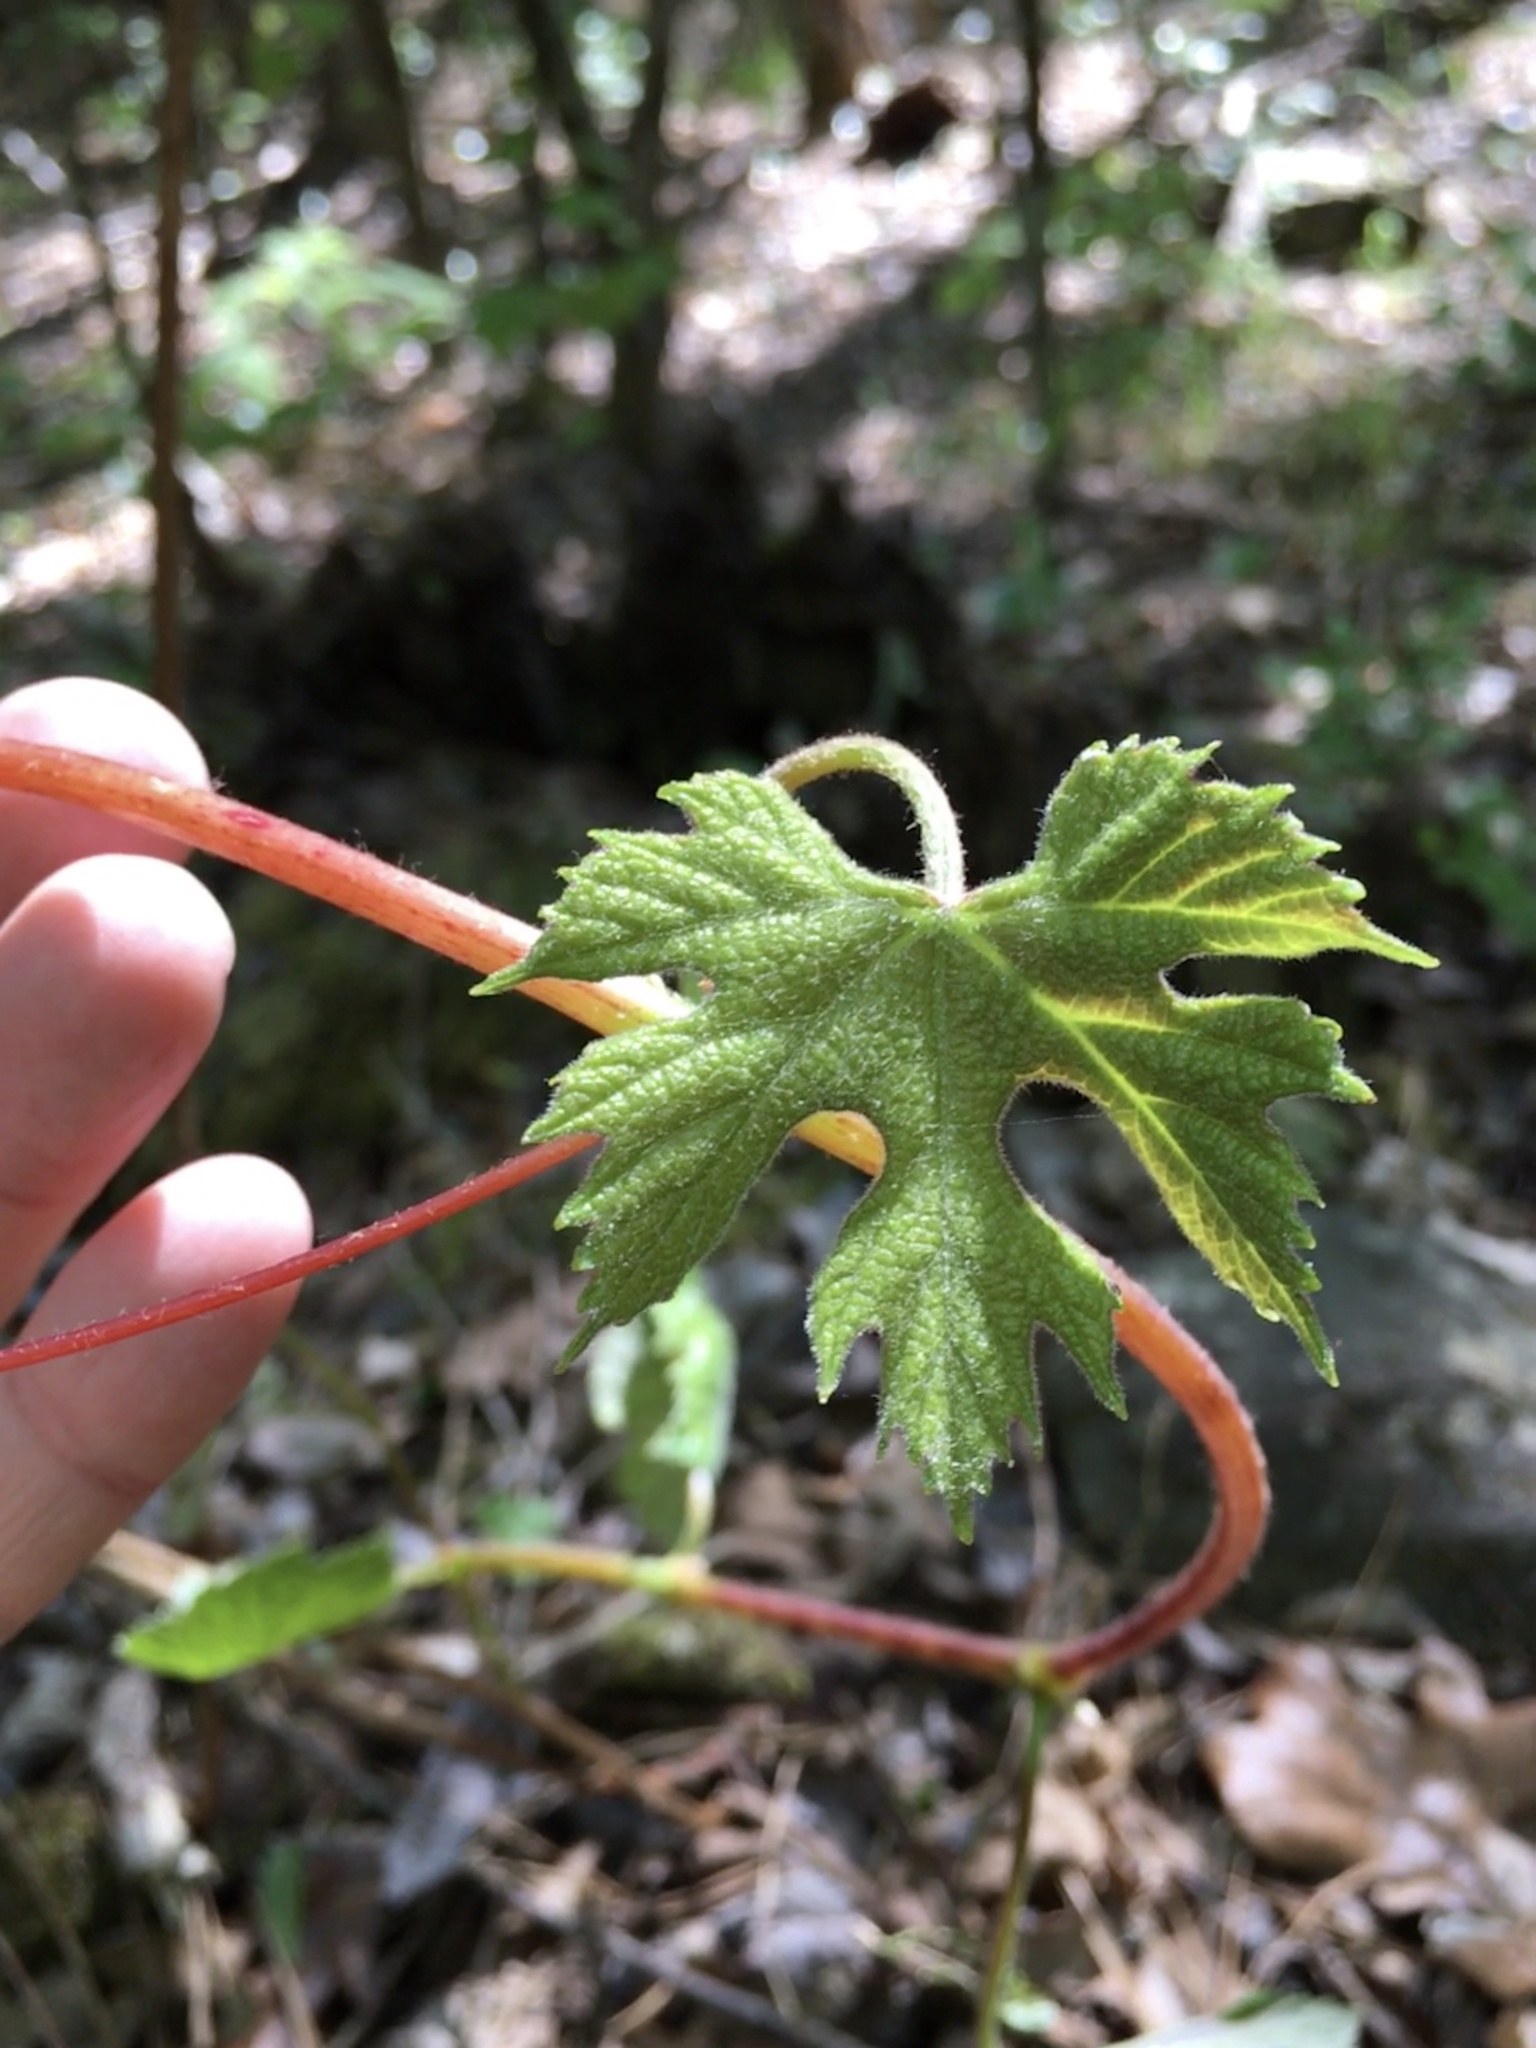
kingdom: Plantae
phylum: Tracheophyta
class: Magnoliopsida
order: Vitales
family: Vitaceae
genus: Vitis
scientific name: Vitis aestivalis
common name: Pigeon grape
